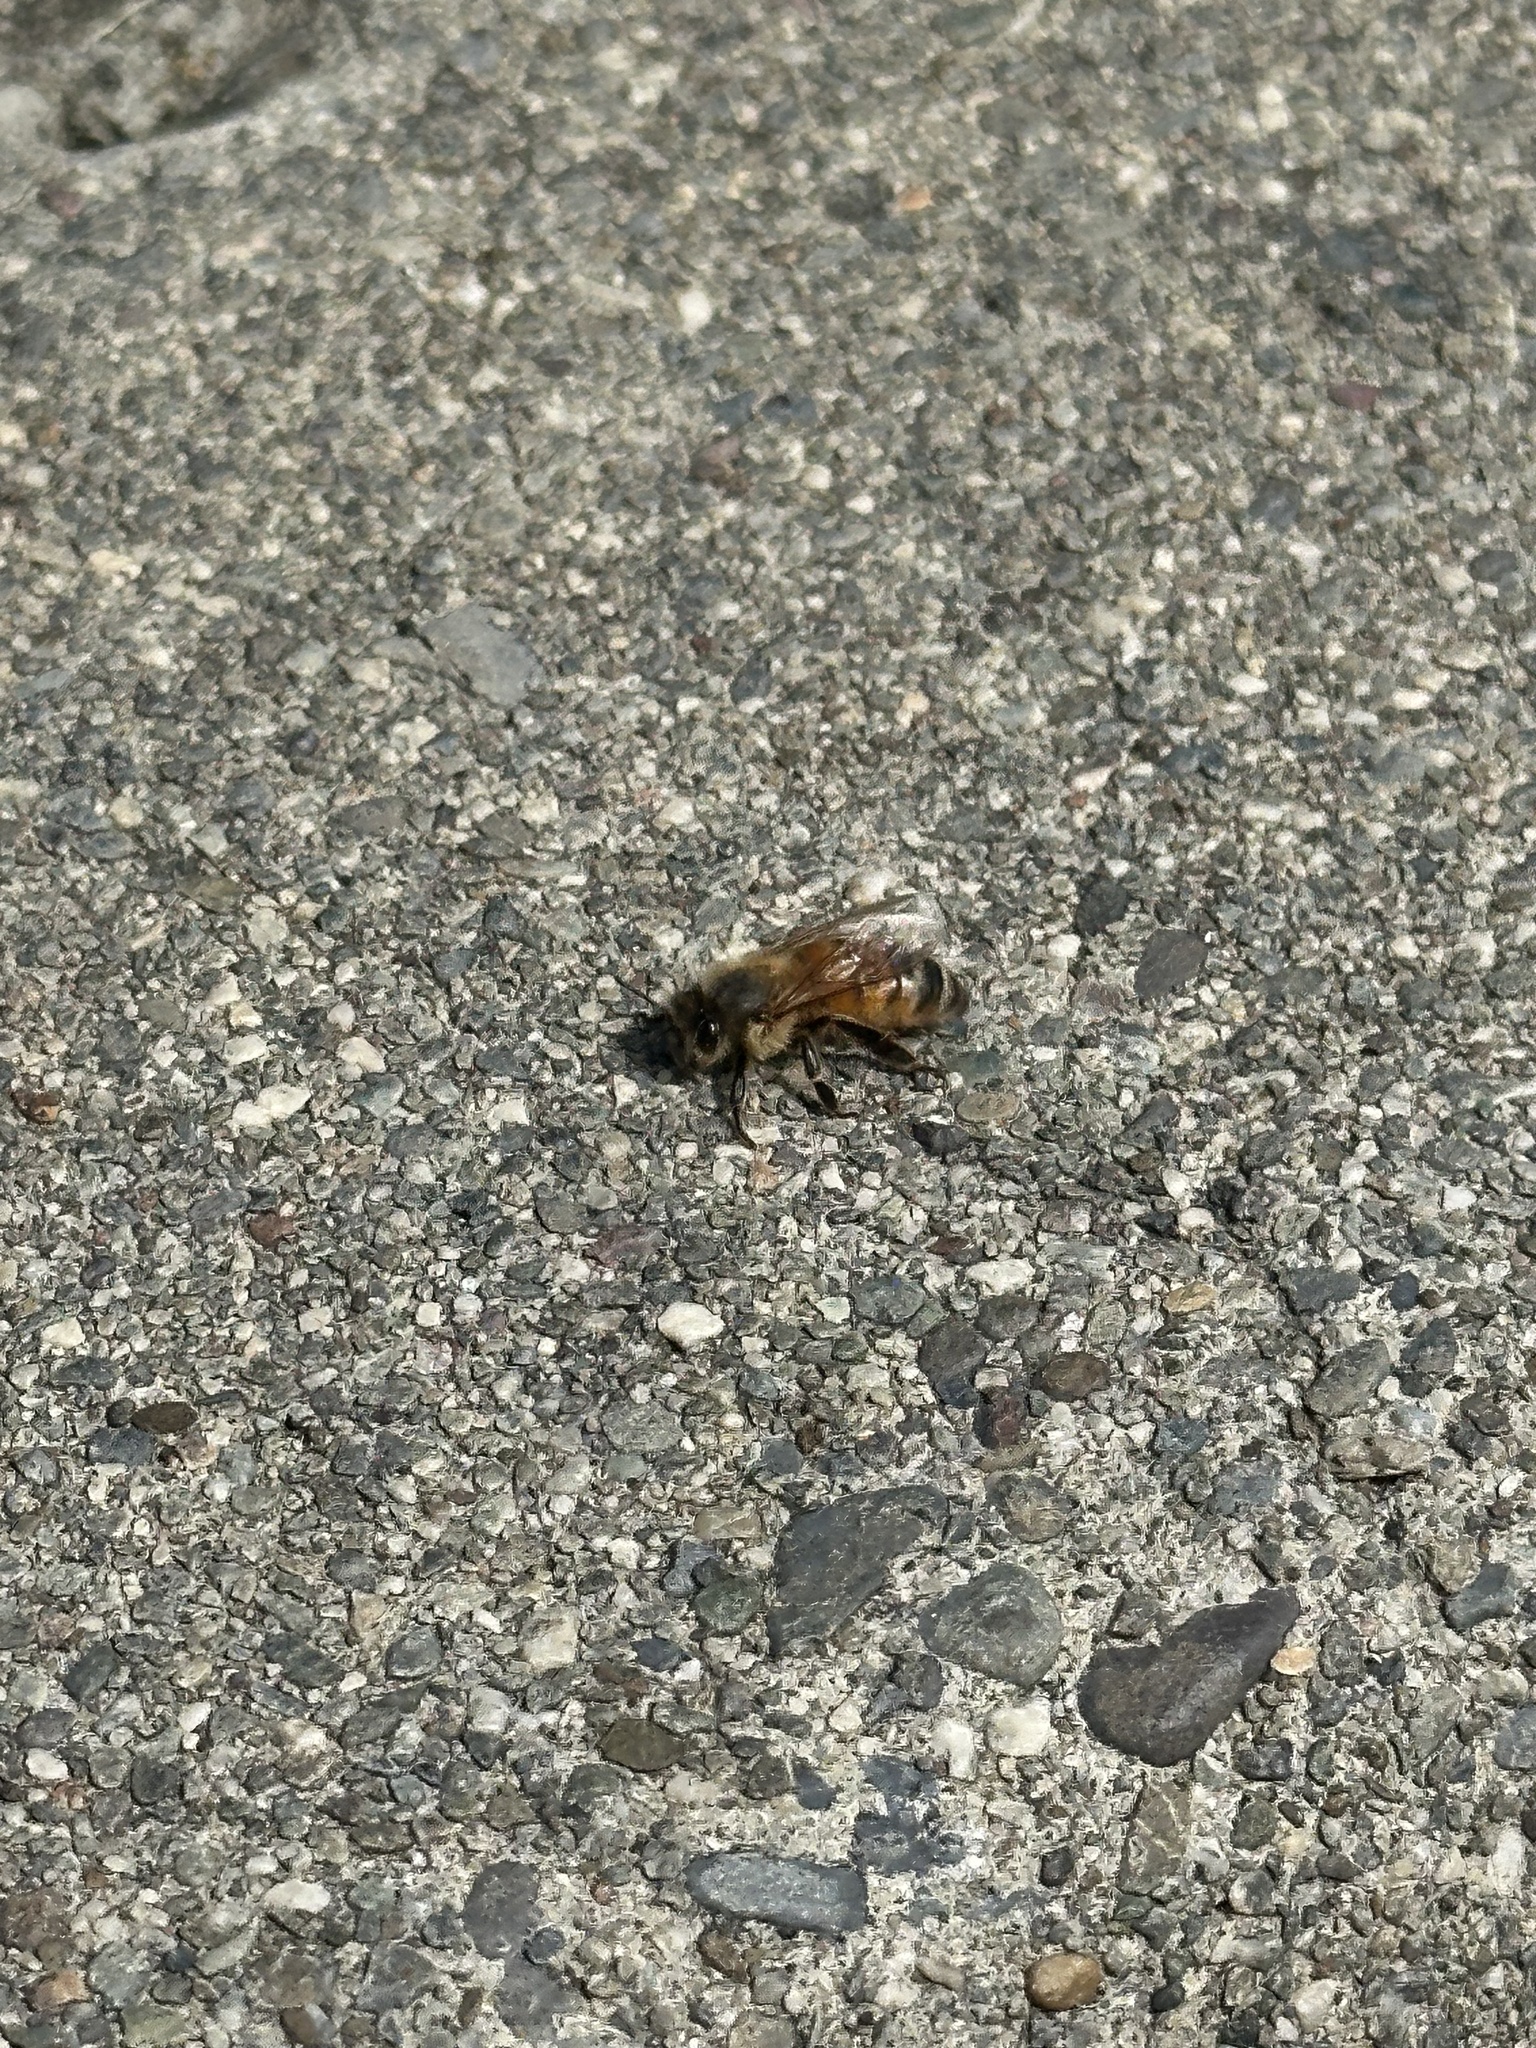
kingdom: Animalia
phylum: Arthropoda
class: Insecta
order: Hymenoptera
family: Apidae
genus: Apis
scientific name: Apis mellifera
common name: Honey bee
